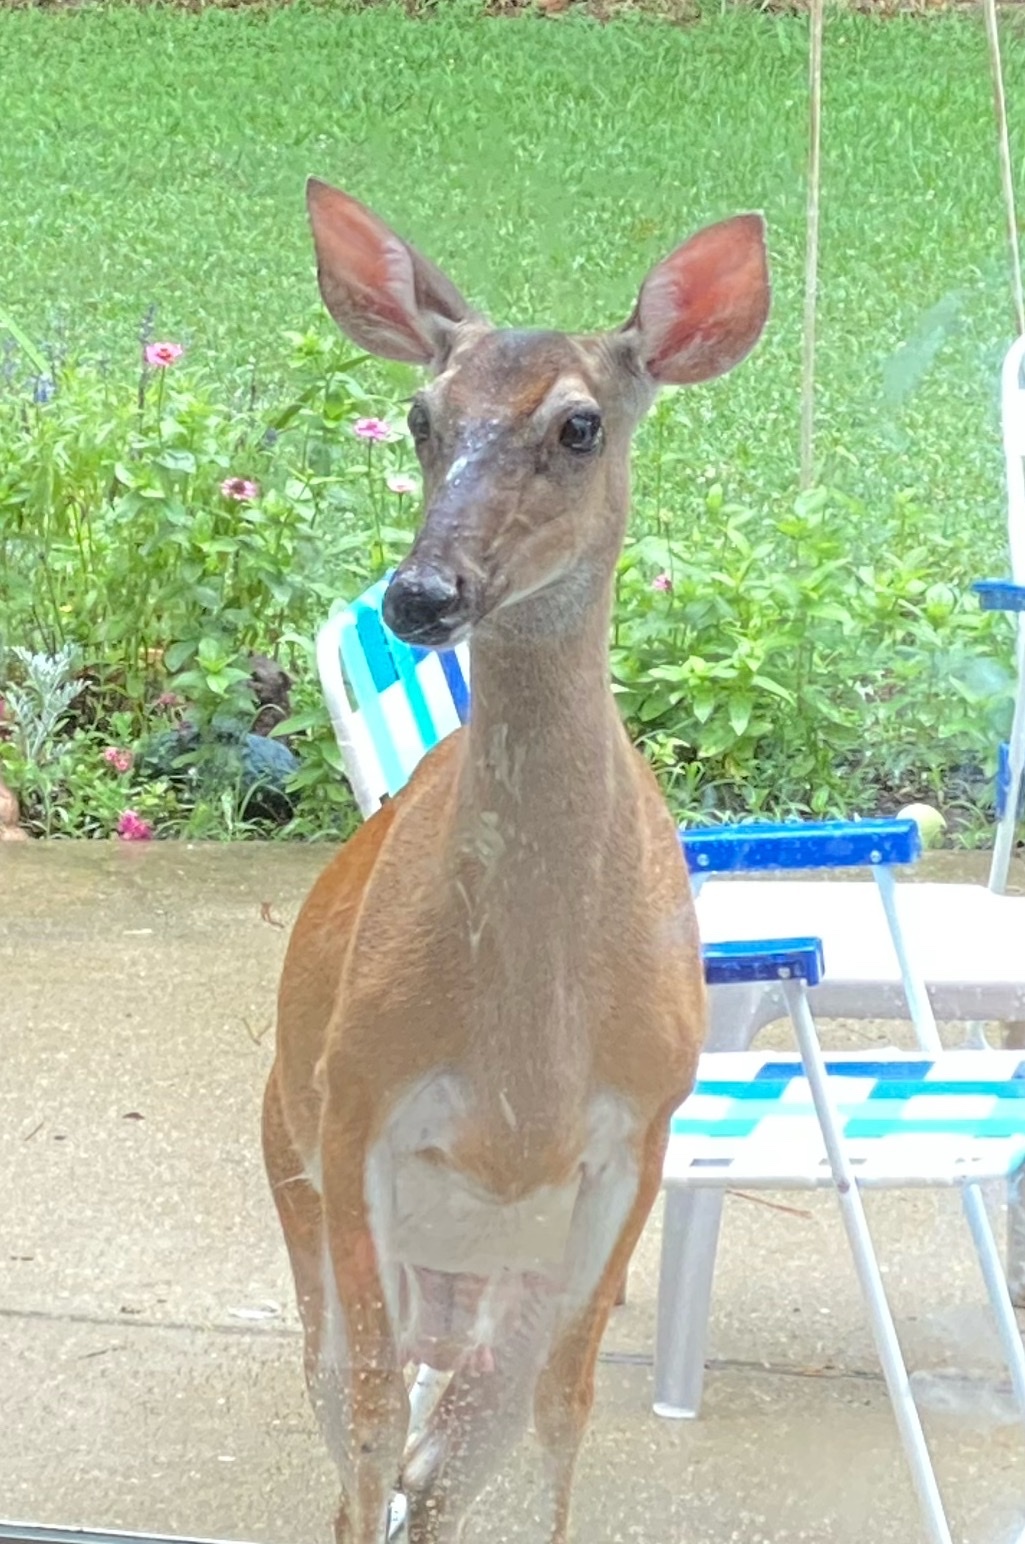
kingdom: Animalia
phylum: Chordata
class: Mammalia
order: Artiodactyla
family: Cervidae
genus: Odocoileus
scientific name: Odocoileus virginianus
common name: White-tailed deer
